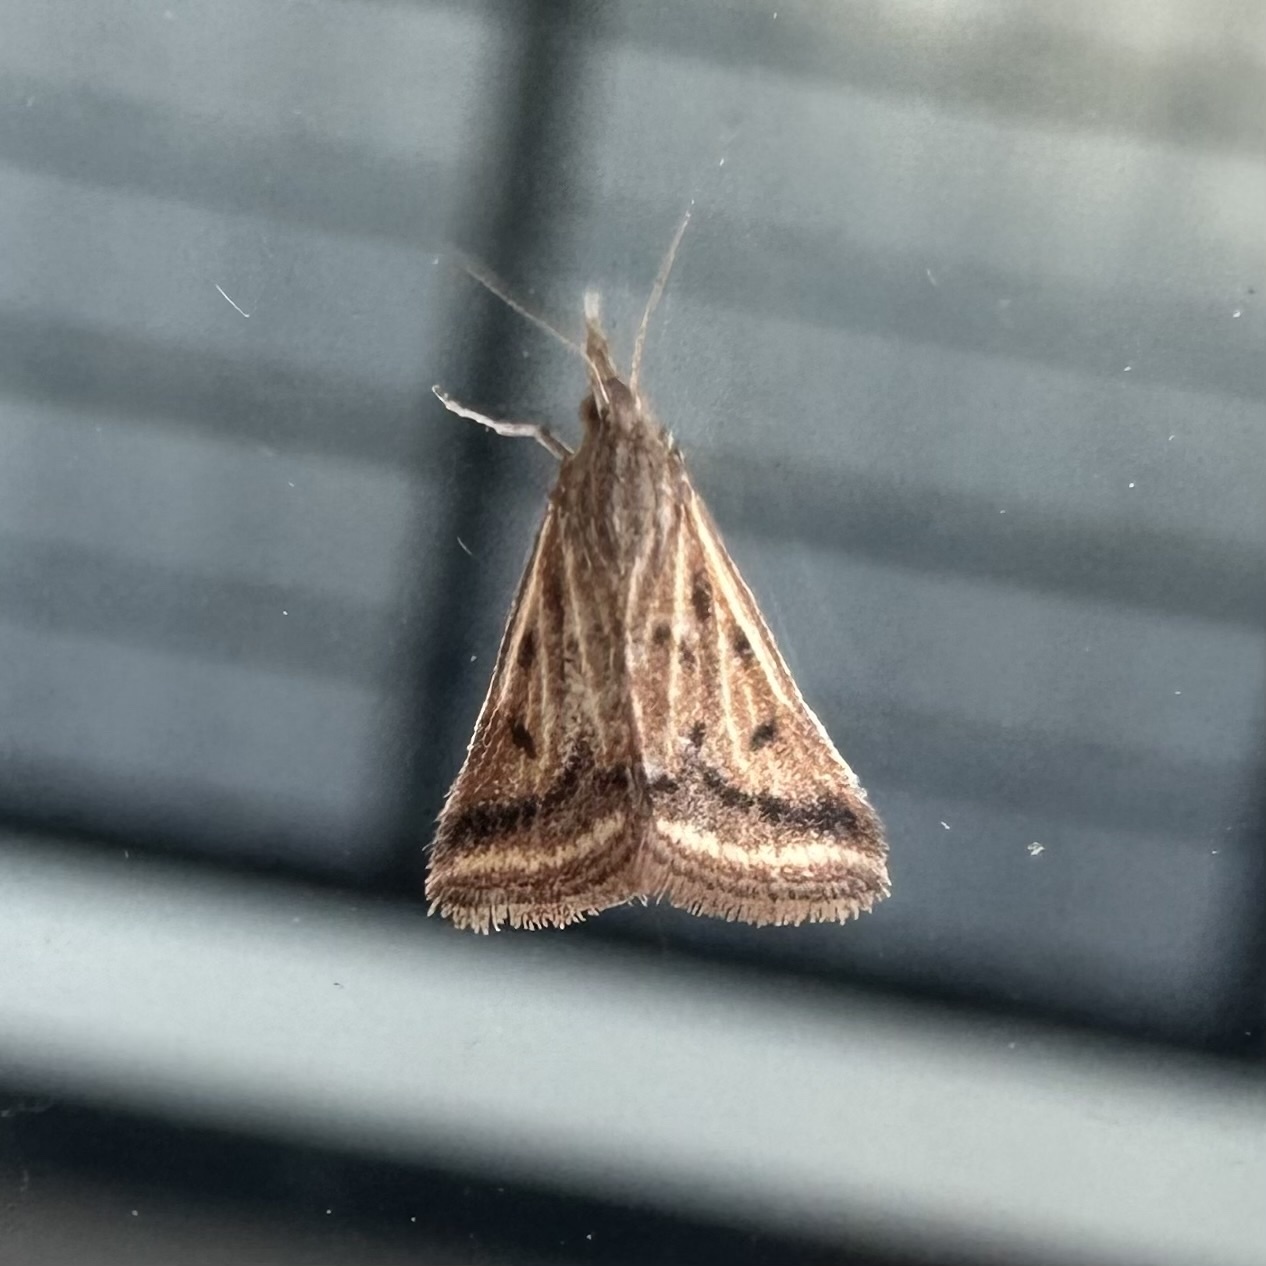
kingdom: Animalia
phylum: Arthropoda
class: Insecta
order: Lepidoptera
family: Crambidae
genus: Microtheoris
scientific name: Microtheoris ophionalis
